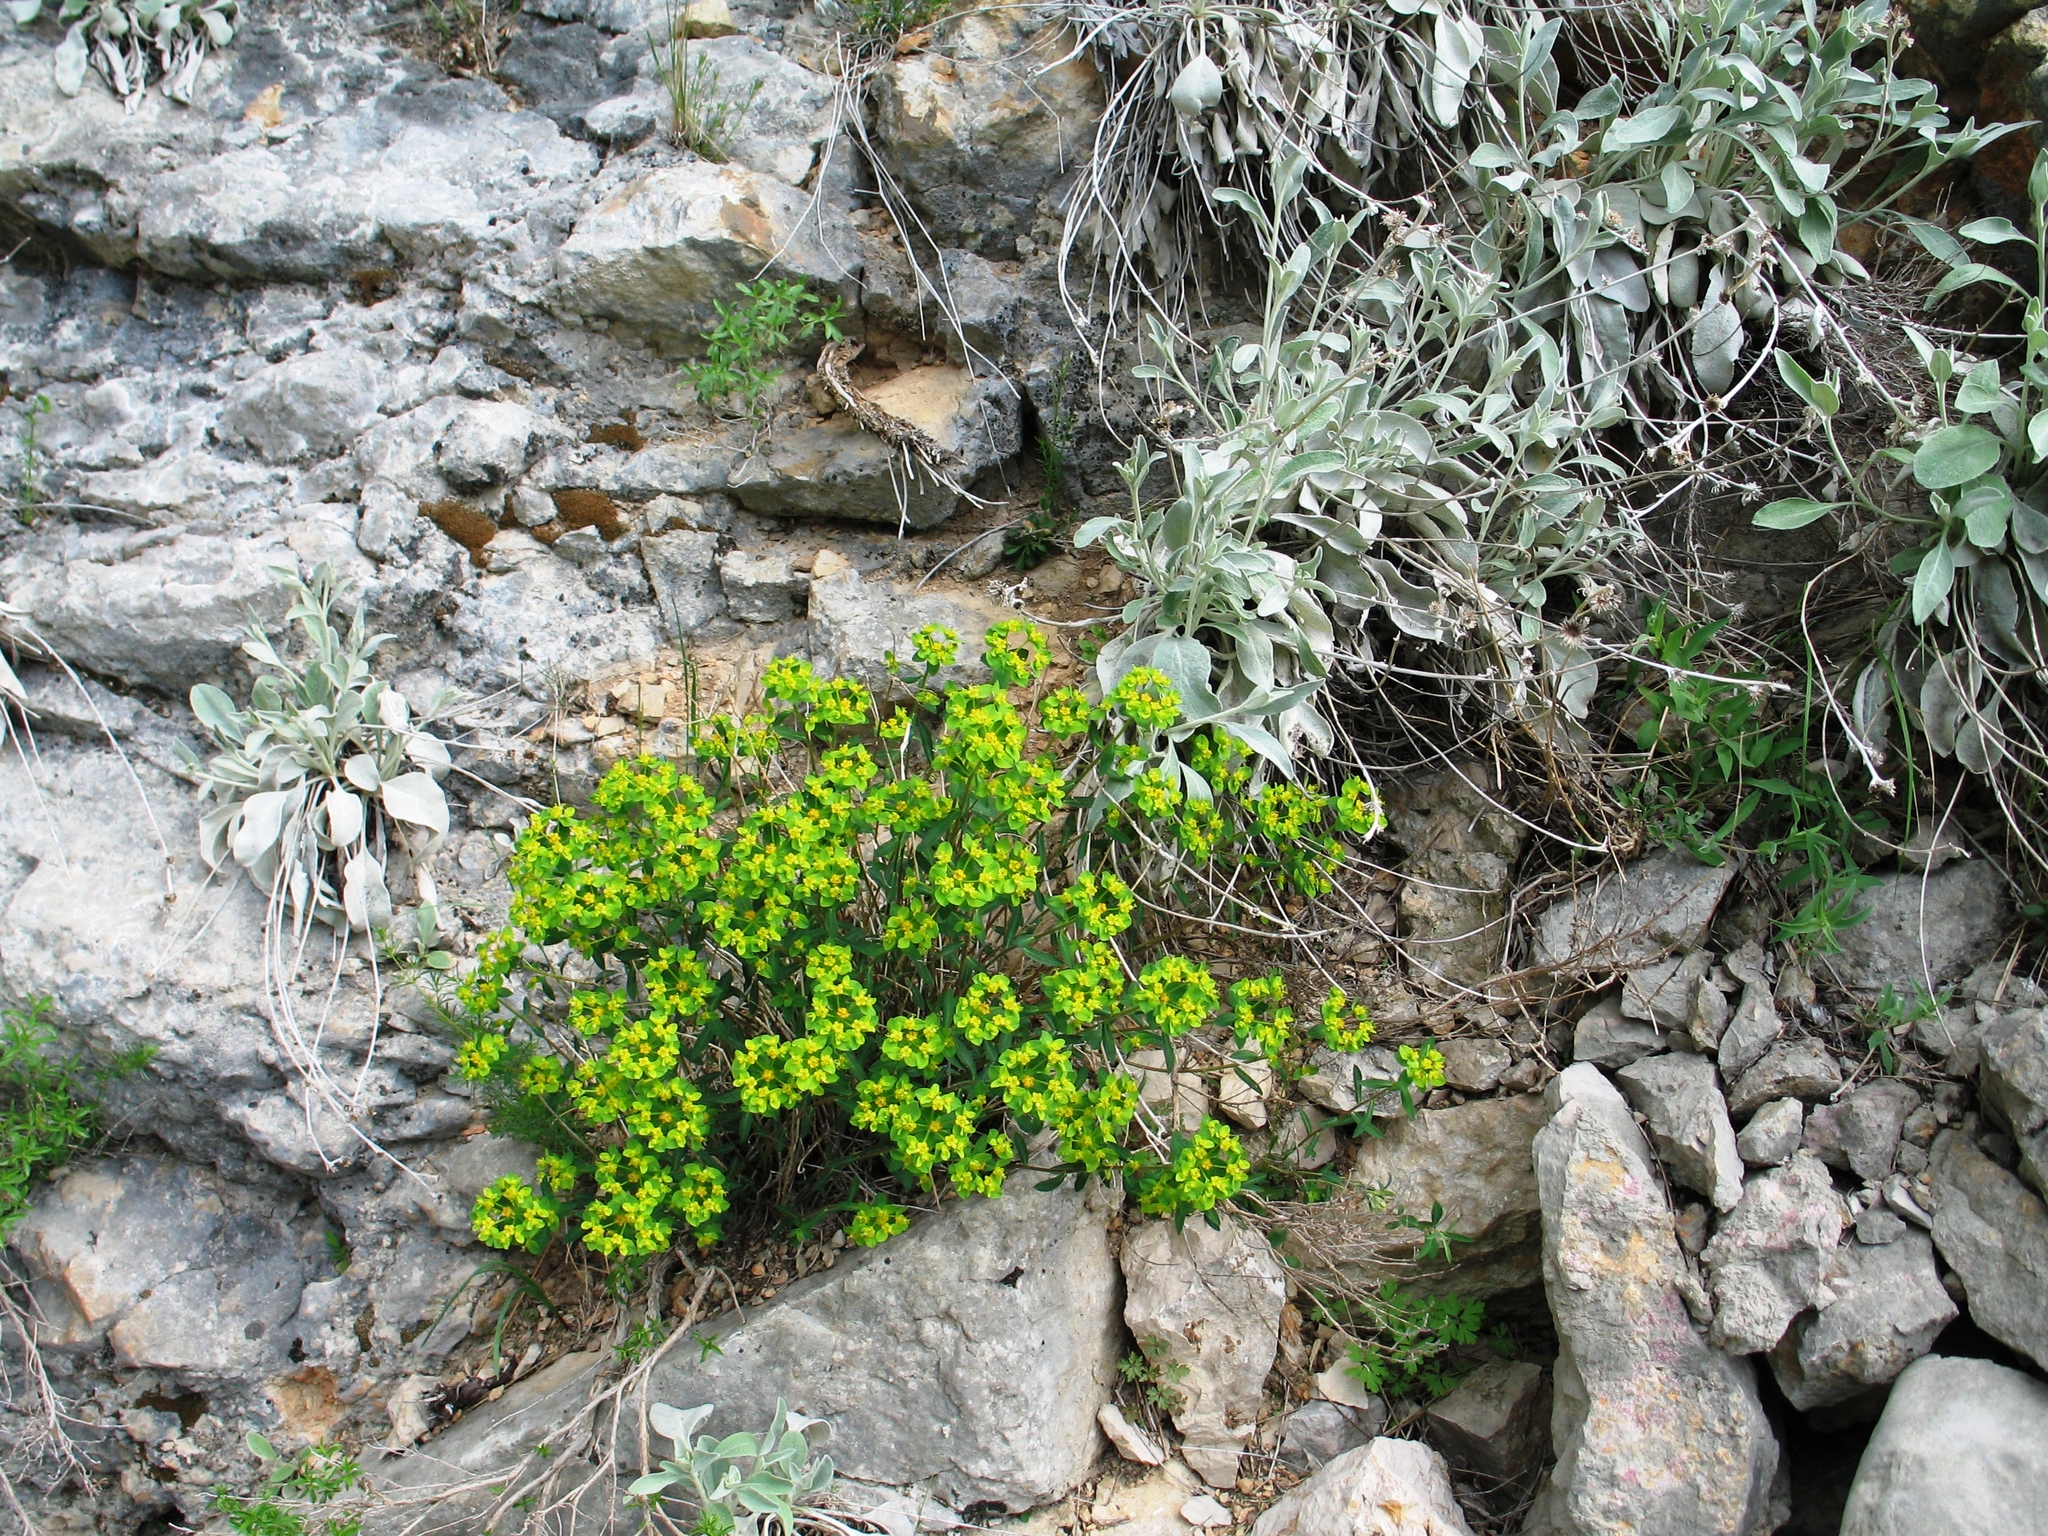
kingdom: Plantae
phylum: Tracheophyta
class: Magnoliopsida
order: Malpighiales
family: Euphorbiaceae
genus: Euphorbia
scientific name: Euphorbia fragifera
